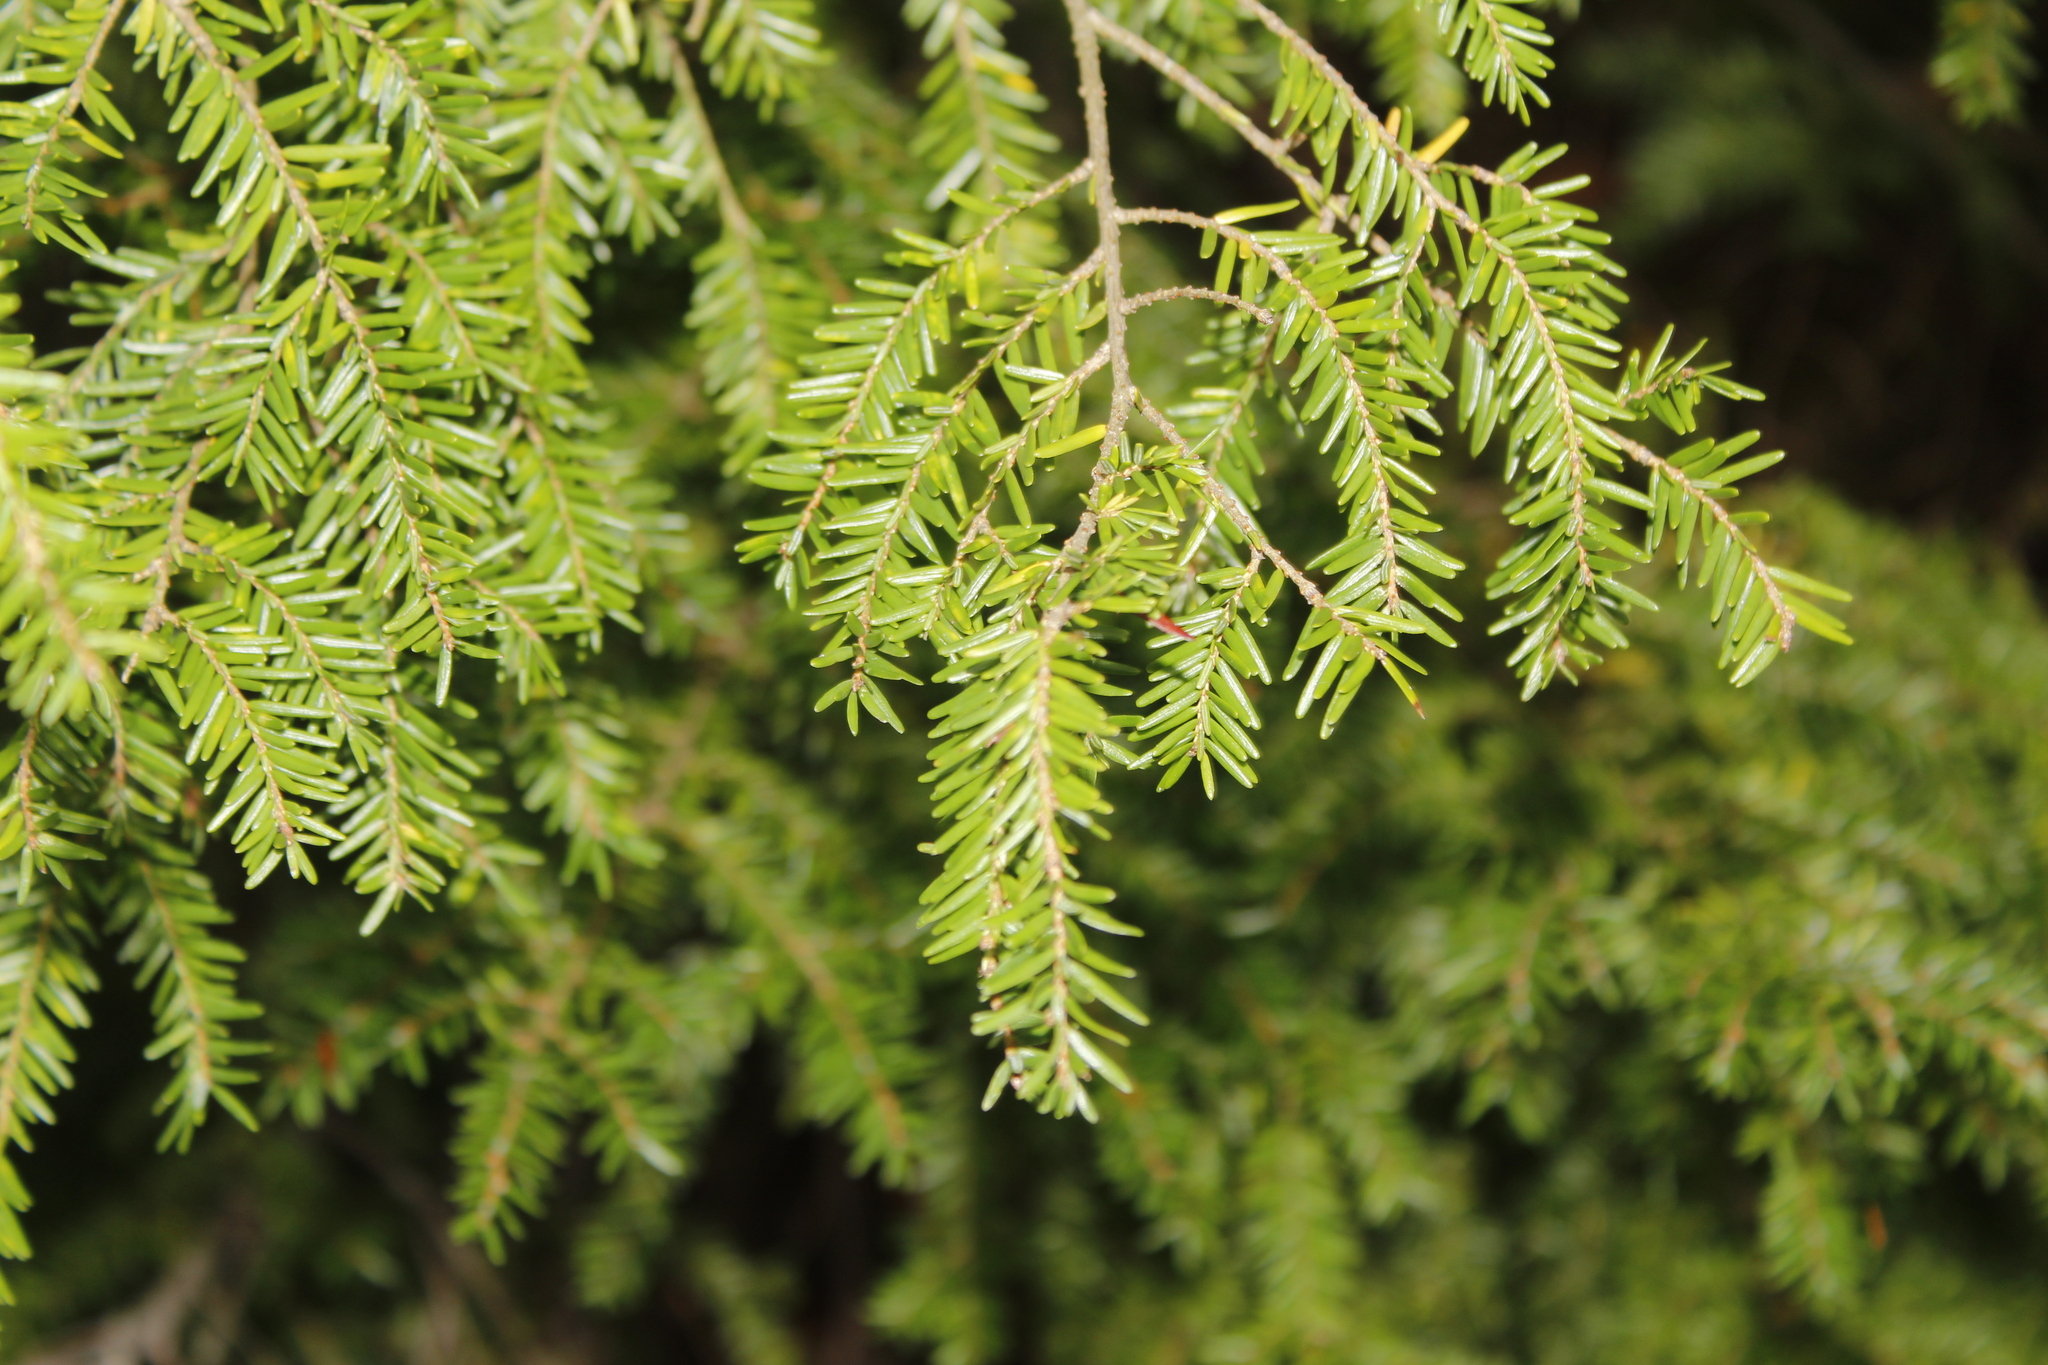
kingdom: Plantae
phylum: Tracheophyta
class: Pinopsida
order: Pinales
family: Pinaceae
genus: Tsuga
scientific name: Tsuga canadensis
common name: Eastern hemlock
